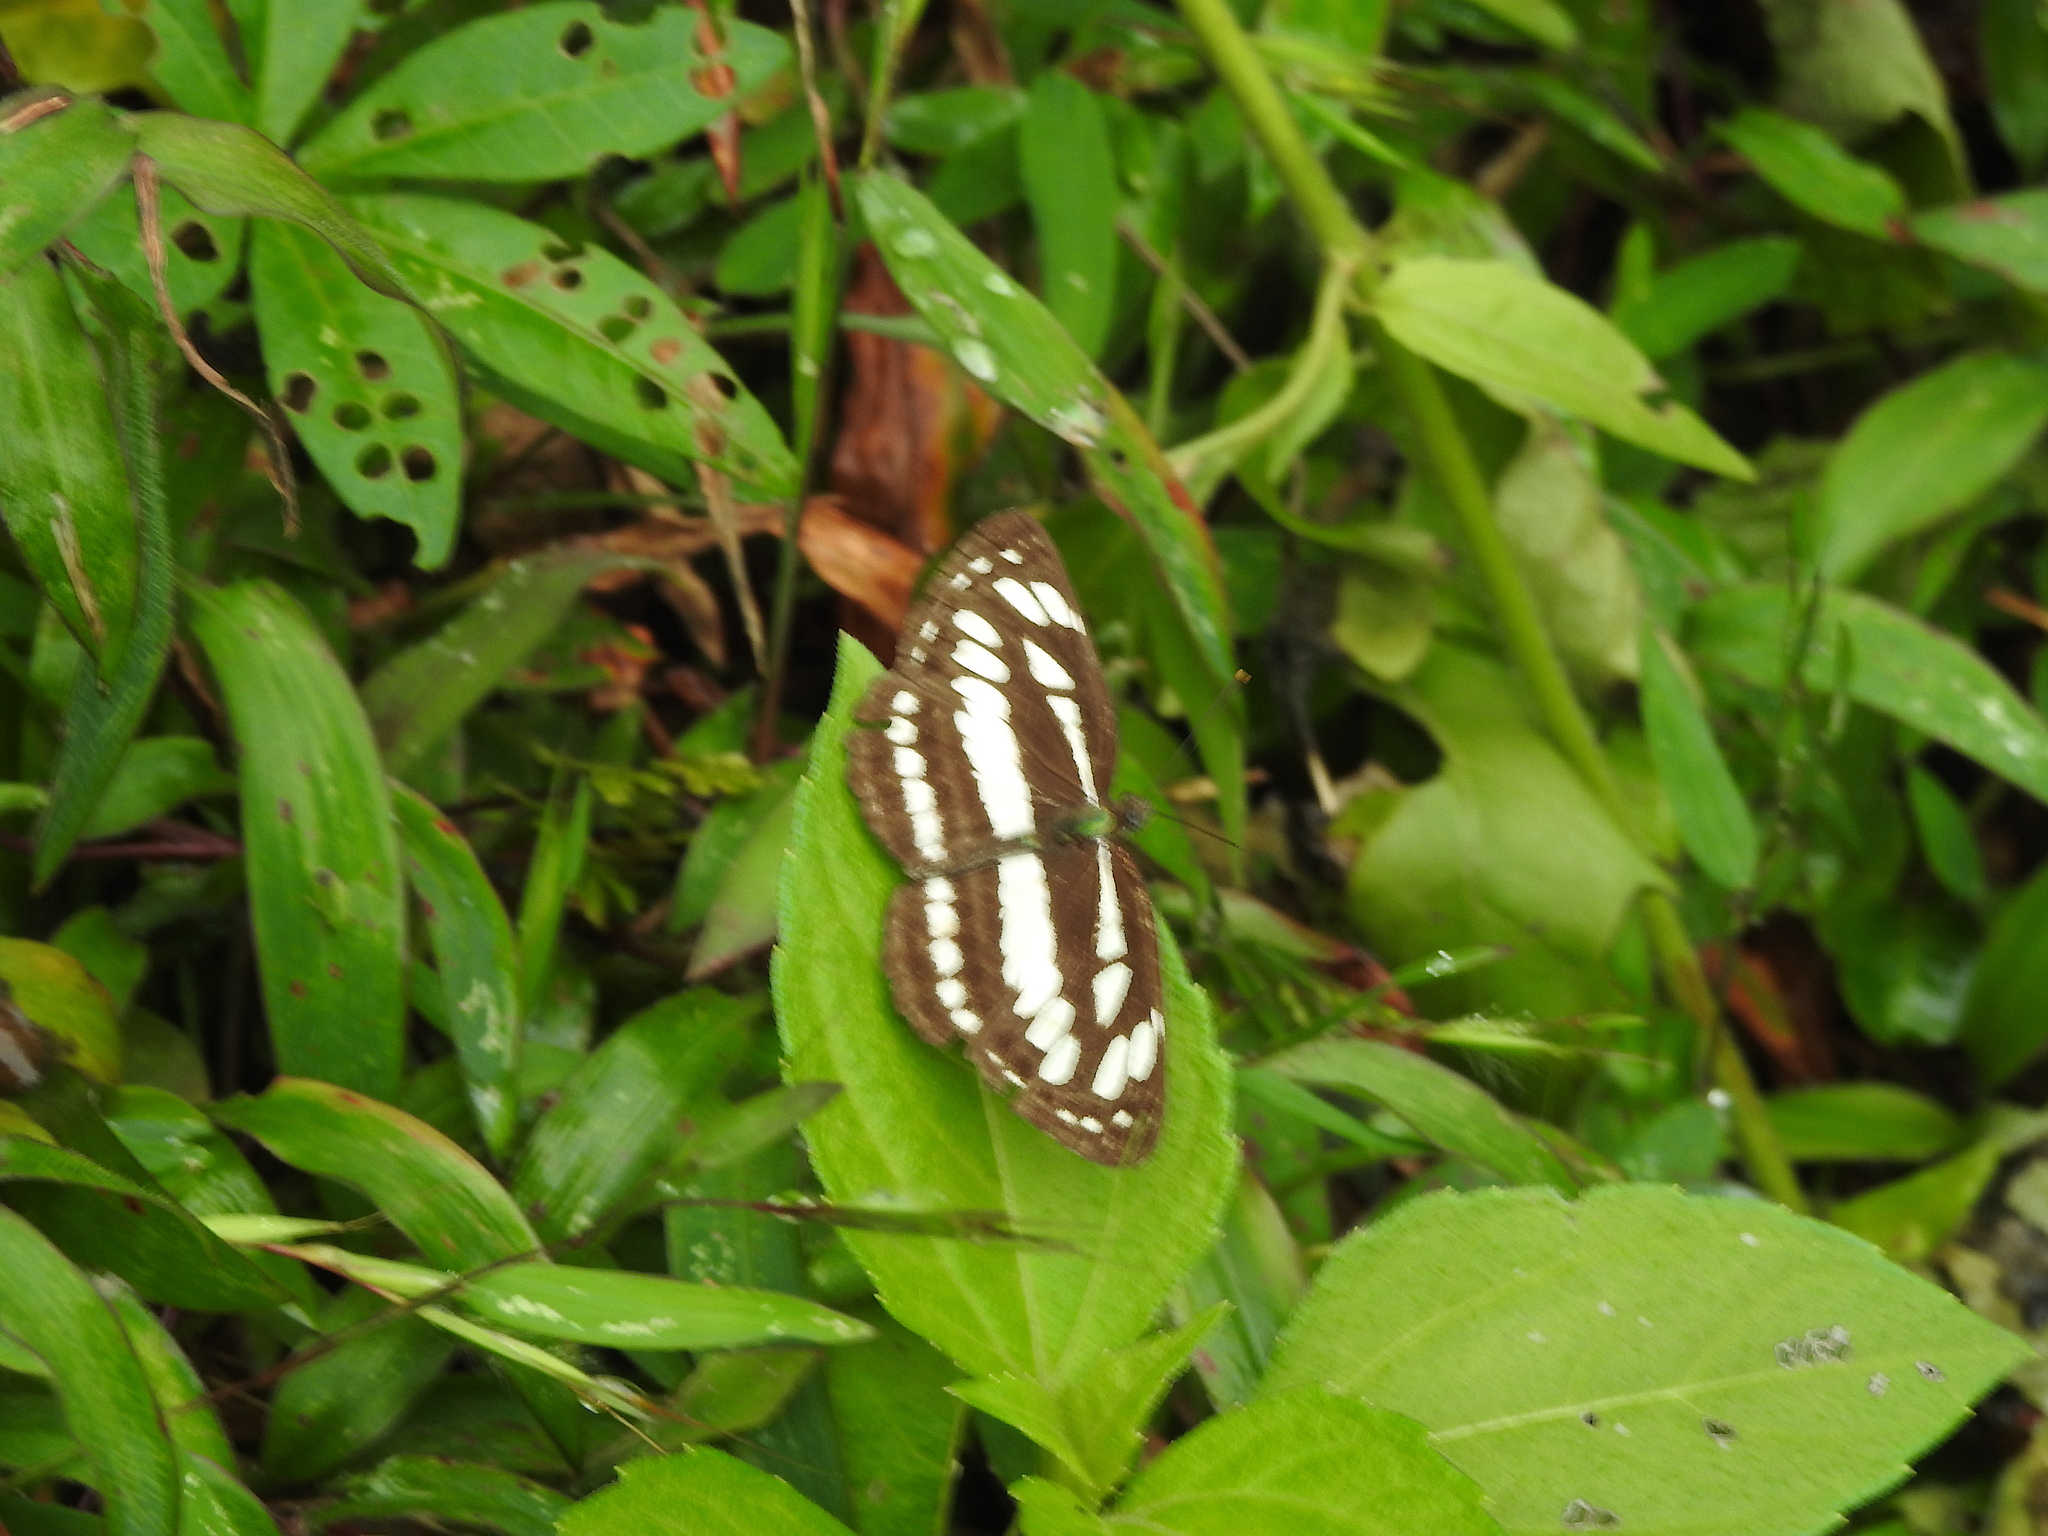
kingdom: Animalia
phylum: Arthropoda
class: Insecta
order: Lepidoptera
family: Nymphalidae
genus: Neptis
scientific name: Neptis hylas
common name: Common sailer
